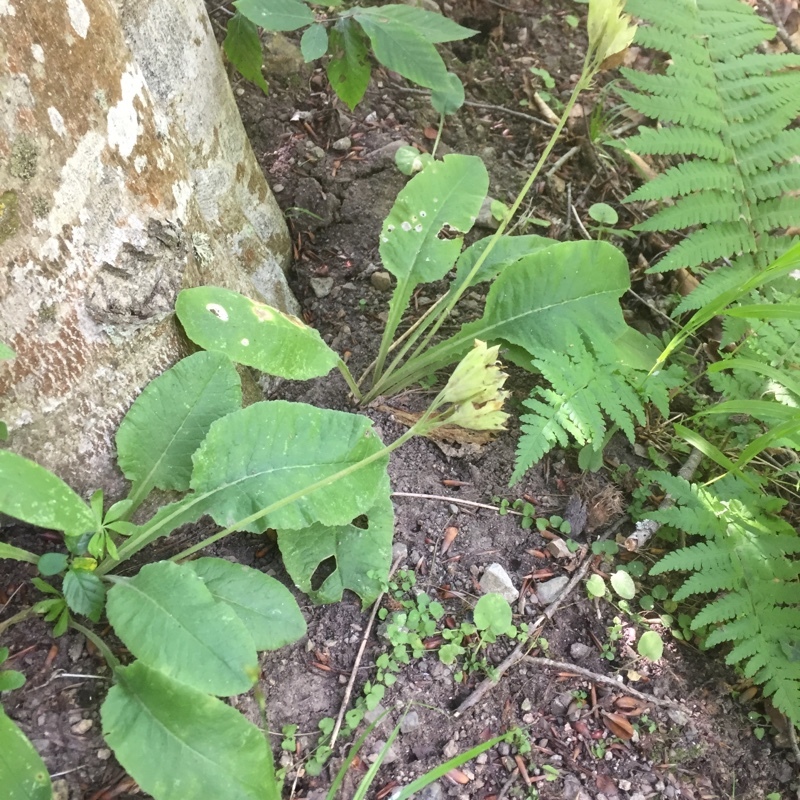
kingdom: Plantae
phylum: Tracheophyta
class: Magnoliopsida
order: Ericales
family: Primulaceae
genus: Primula
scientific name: Primula veris
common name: Cowslip
